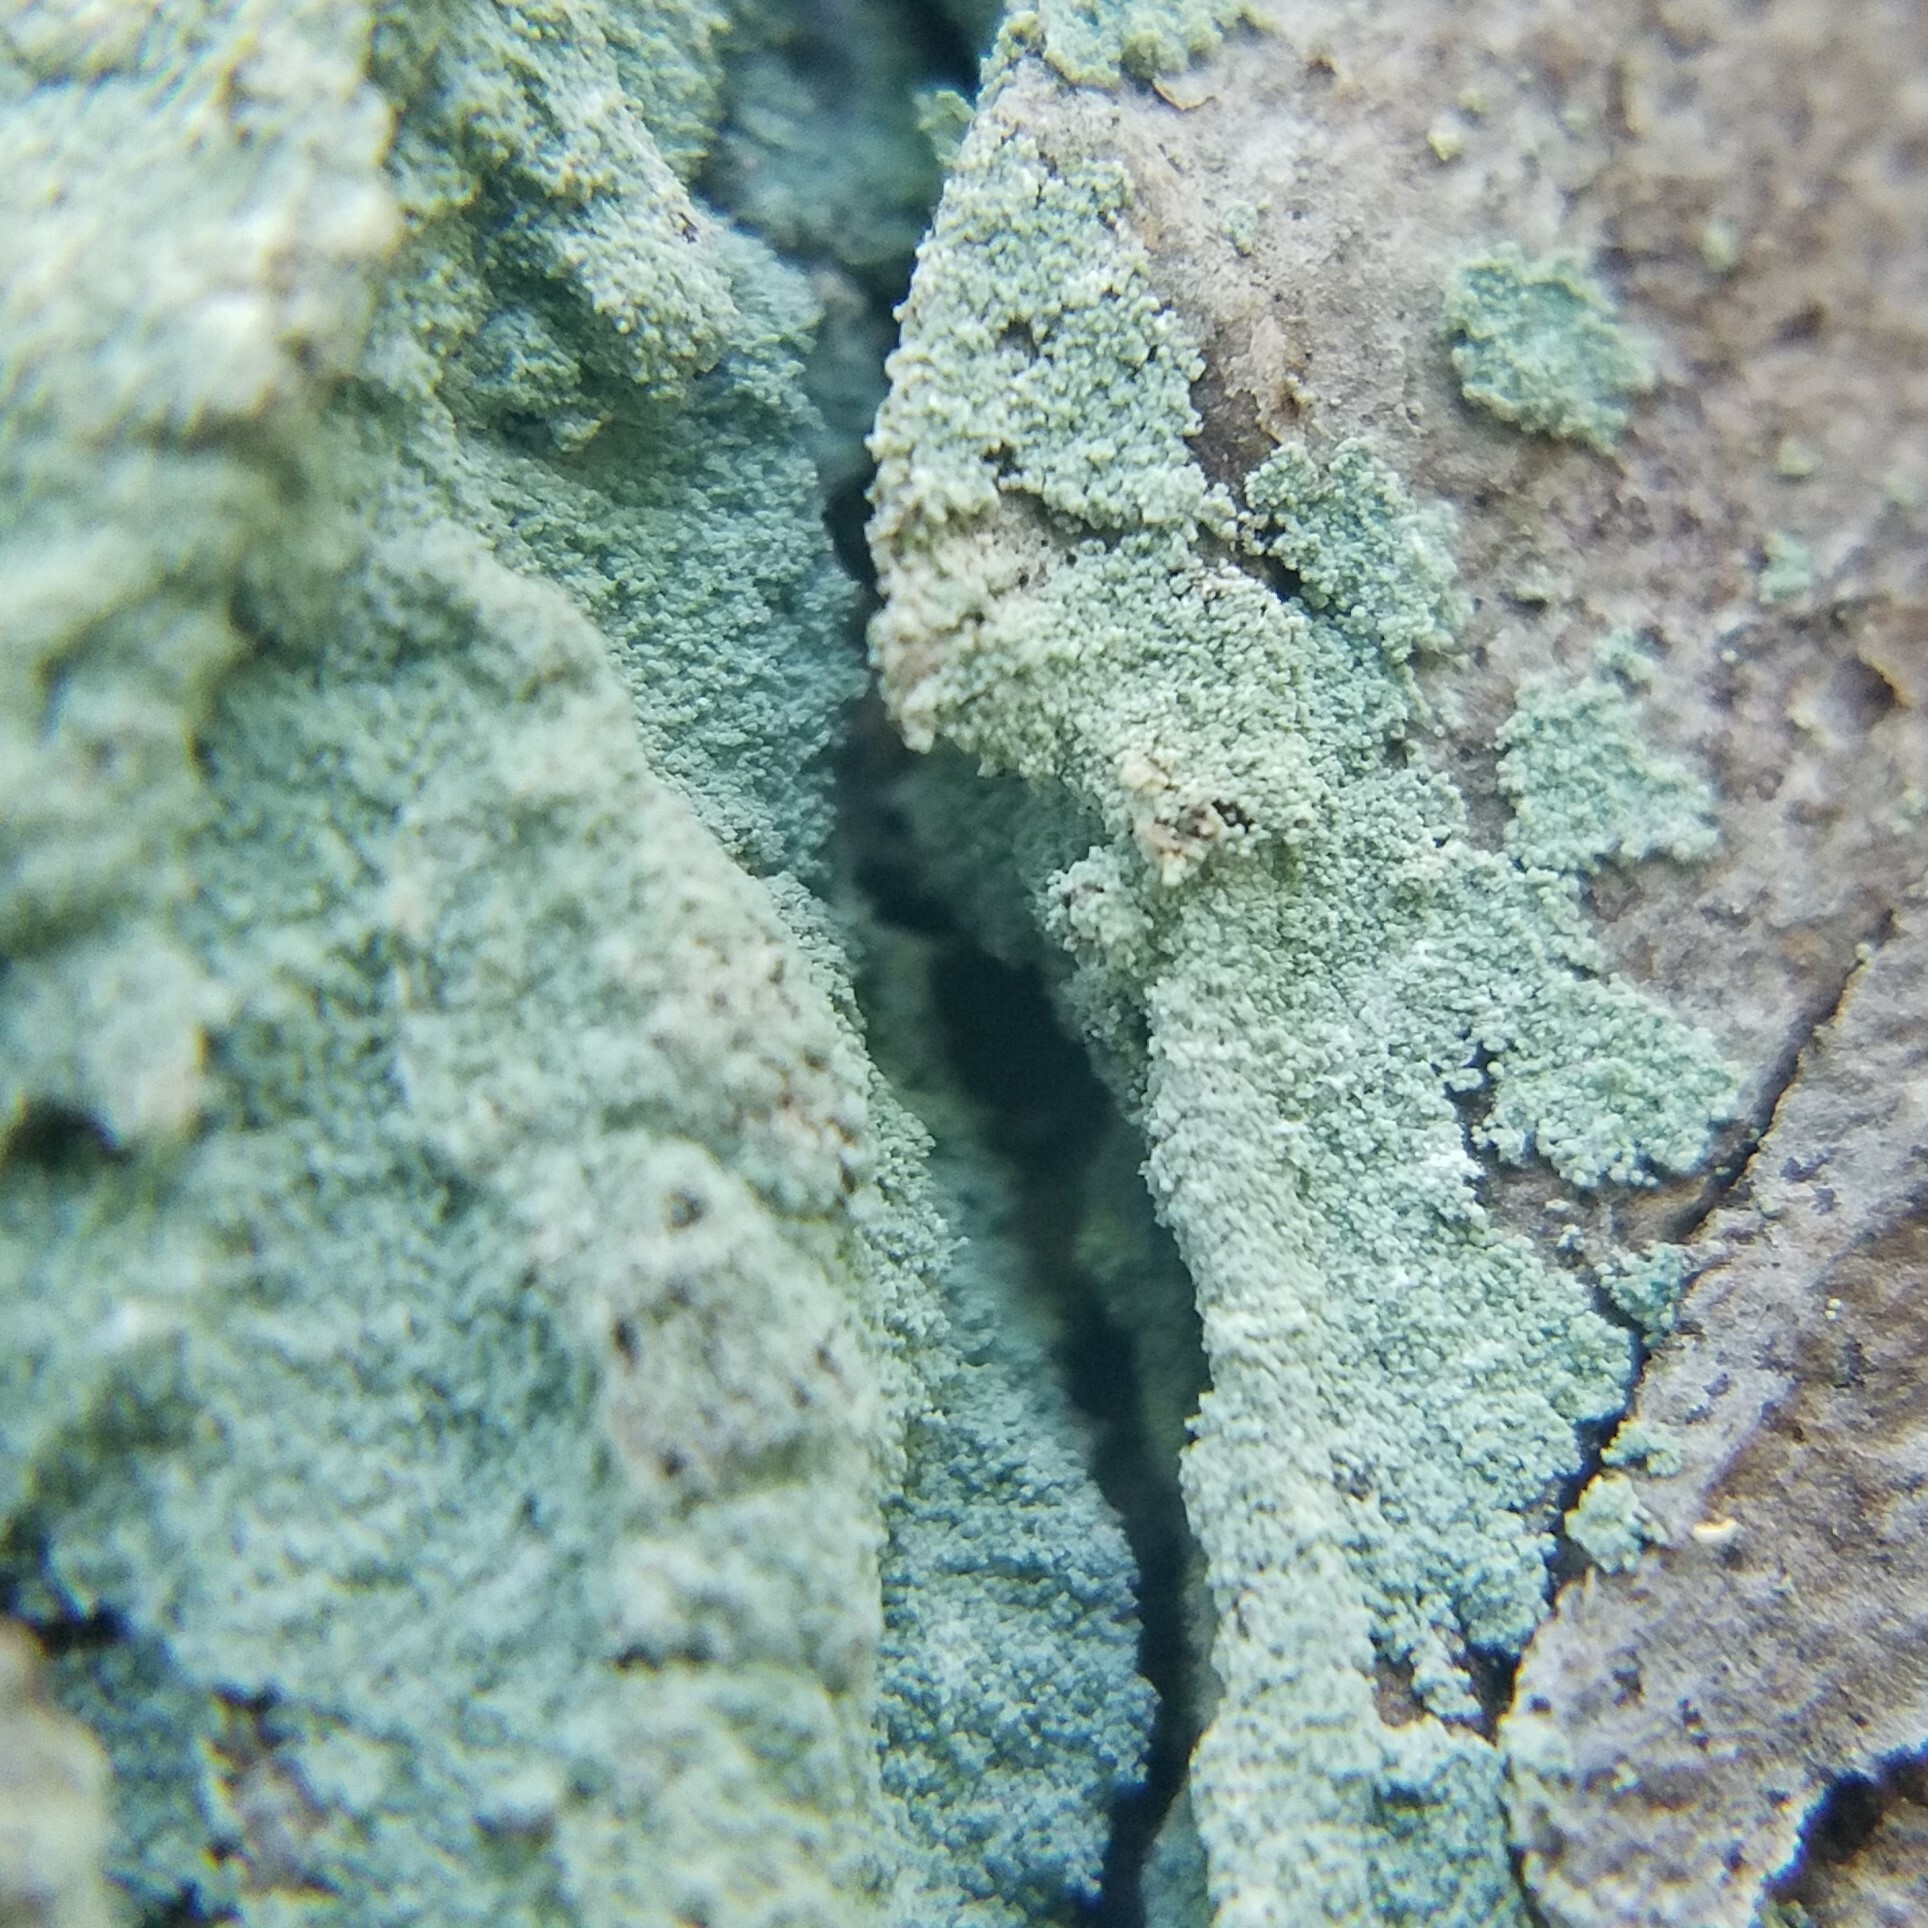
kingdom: Fungi
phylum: Ascomycota
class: Lecanoromycetes
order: Lecanorales
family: Stereocaulaceae
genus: Lepraria
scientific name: Lepraria harrisiana
